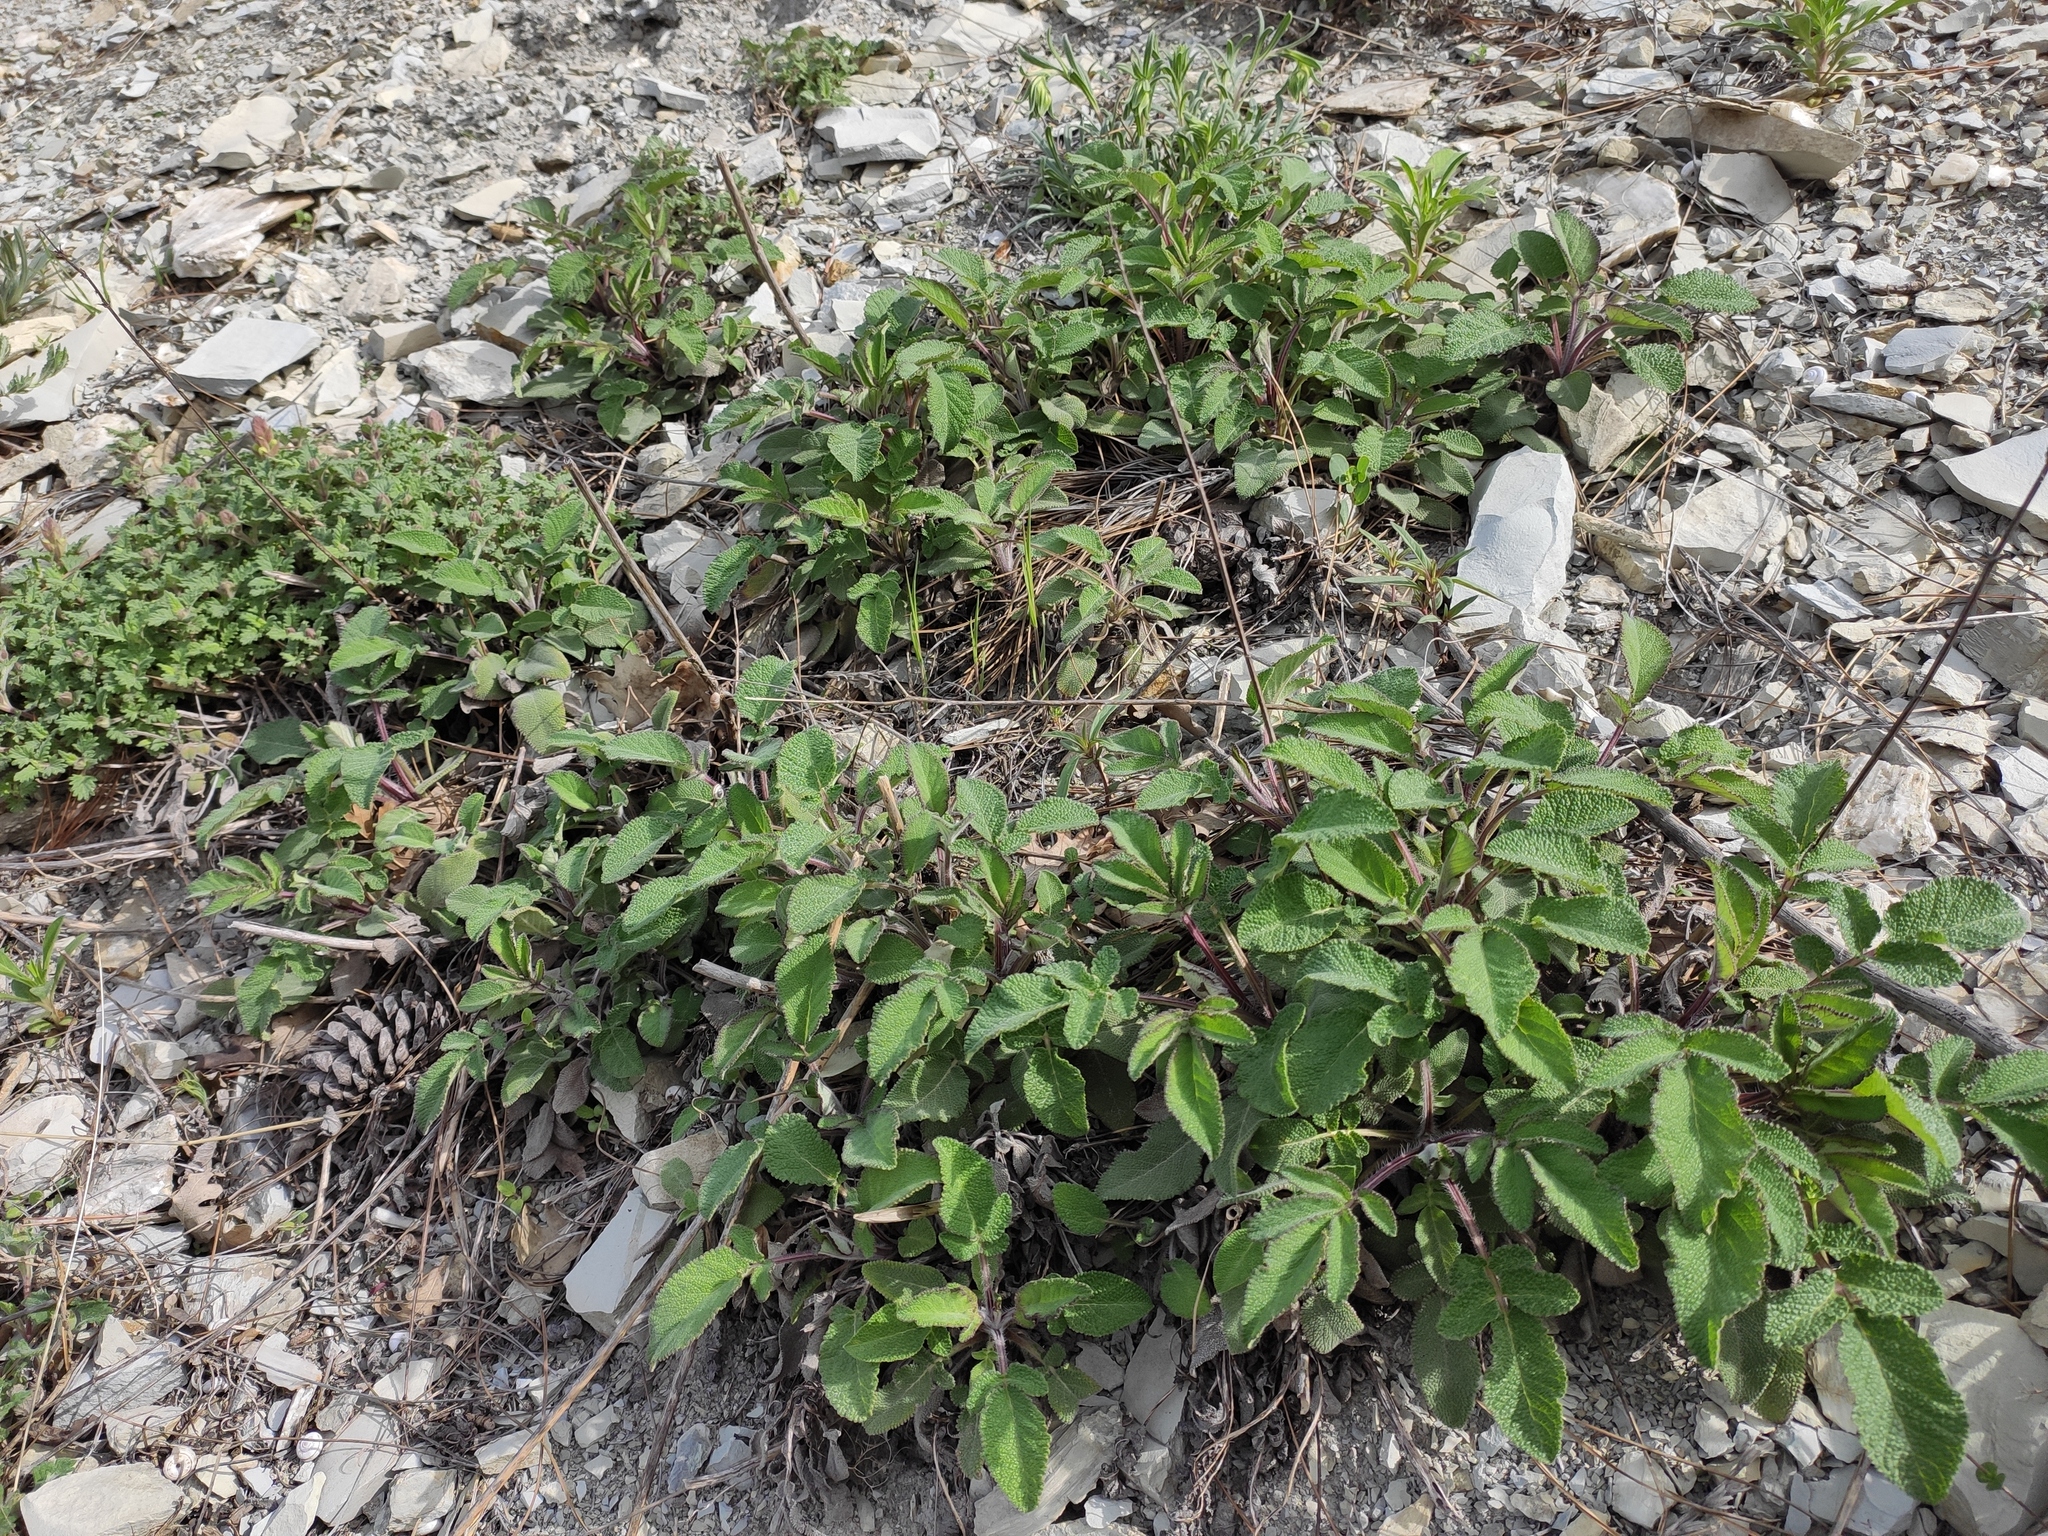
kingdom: Plantae
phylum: Tracheophyta
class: Magnoliopsida
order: Lamiales
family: Lamiaceae
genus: Salvia
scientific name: Salvia ringens
